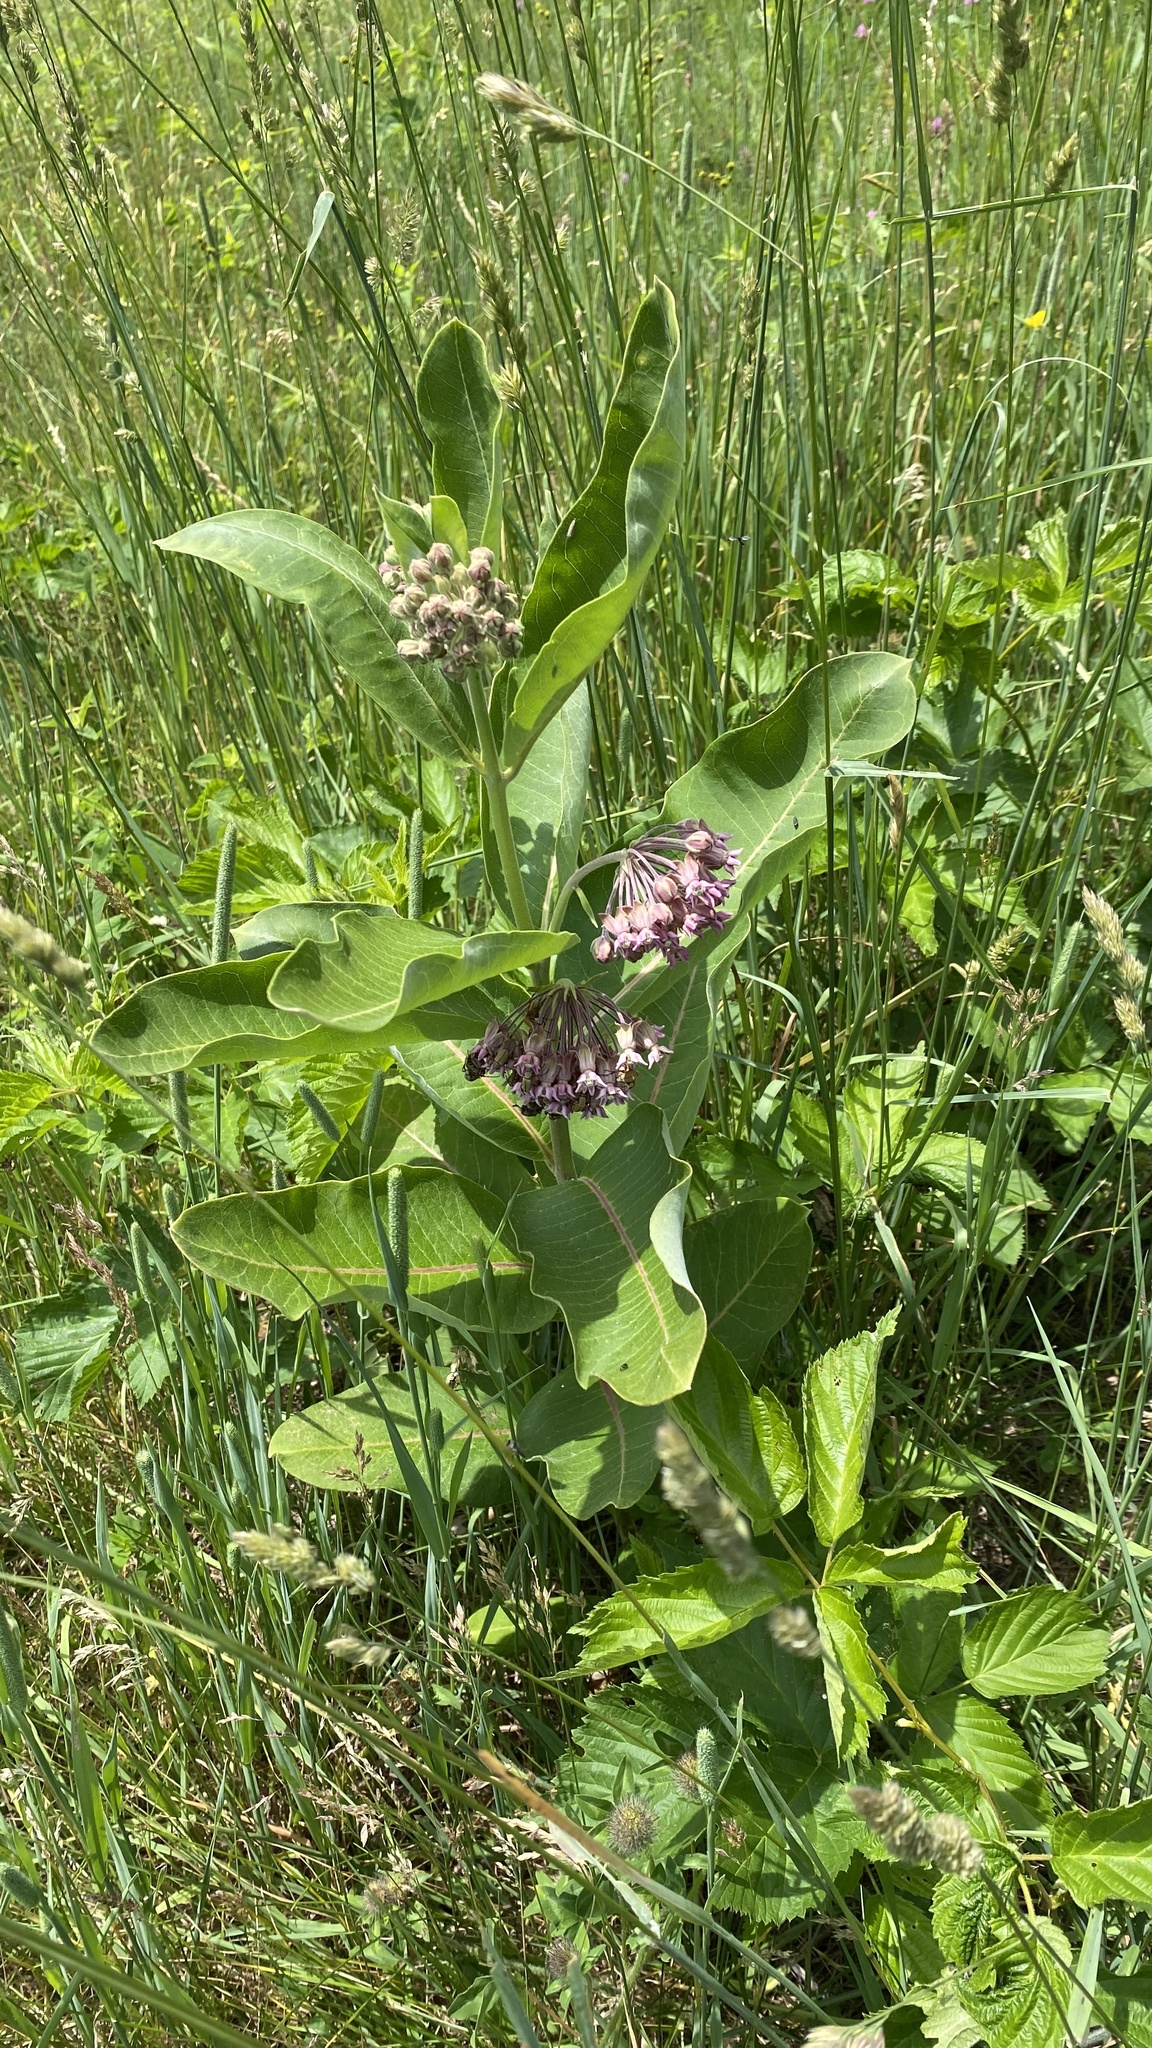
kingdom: Plantae
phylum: Tracheophyta
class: Magnoliopsida
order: Gentianales
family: Apocynaceae
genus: Asclepias
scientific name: Asclepias syriaca
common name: Common milkweed
